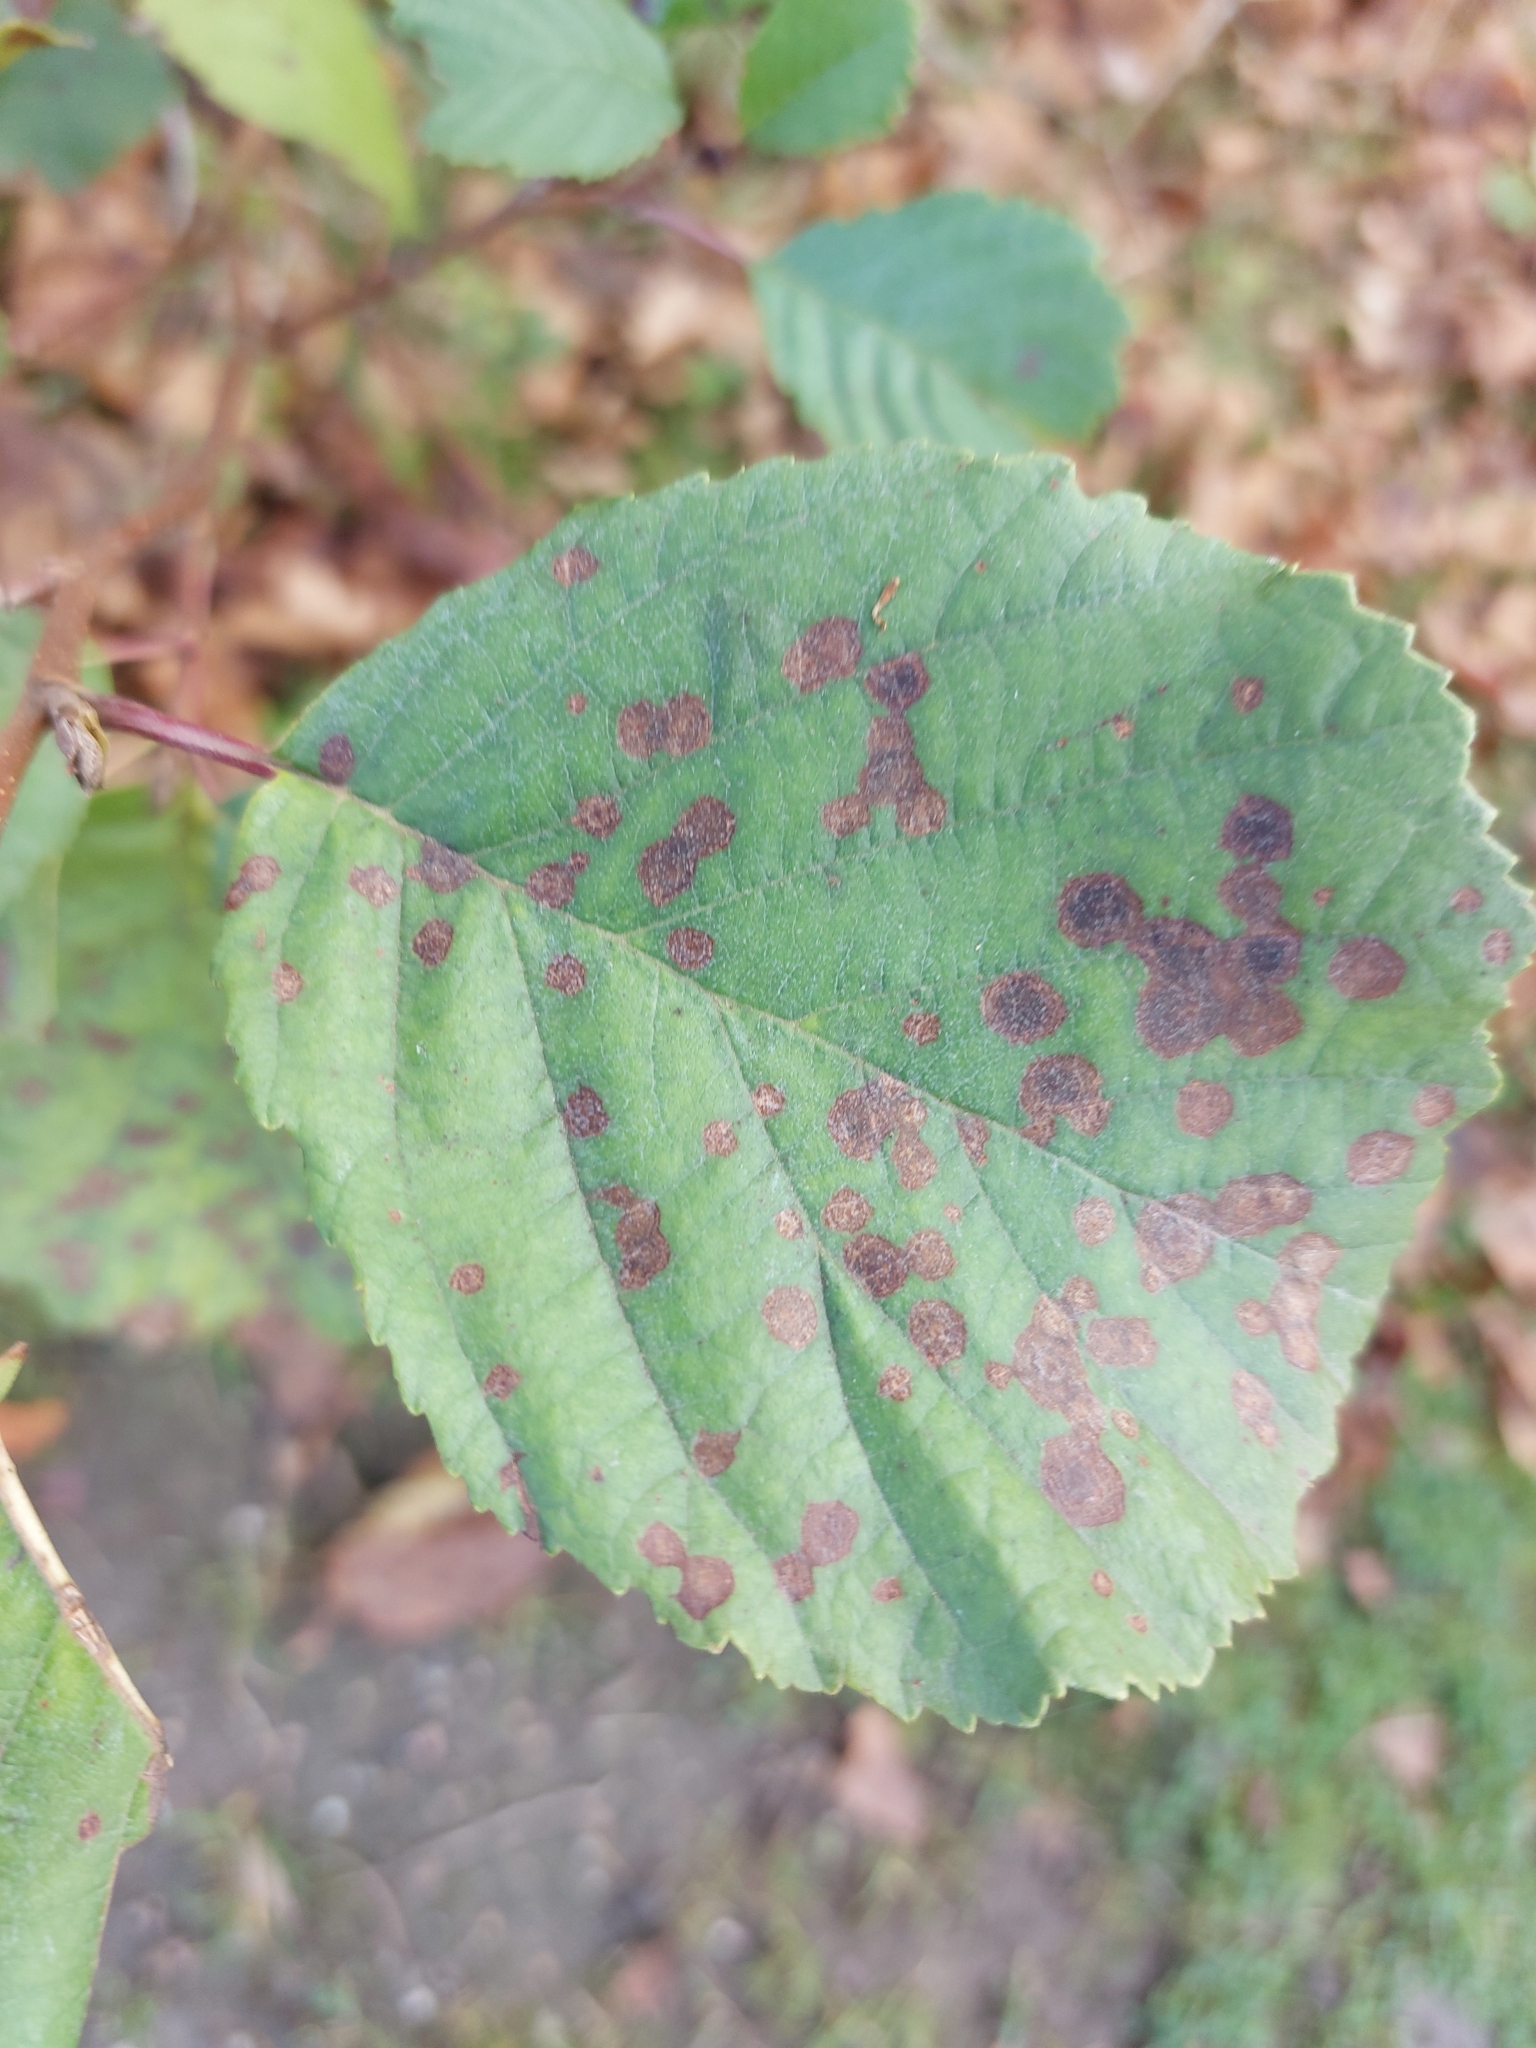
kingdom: Fungi
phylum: Ascomycota
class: Leotiomycetes
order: Helotiales
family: Drepanopezizaceae
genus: Diplocarpon
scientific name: Diplocarpon rosae
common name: Rose black-spot
